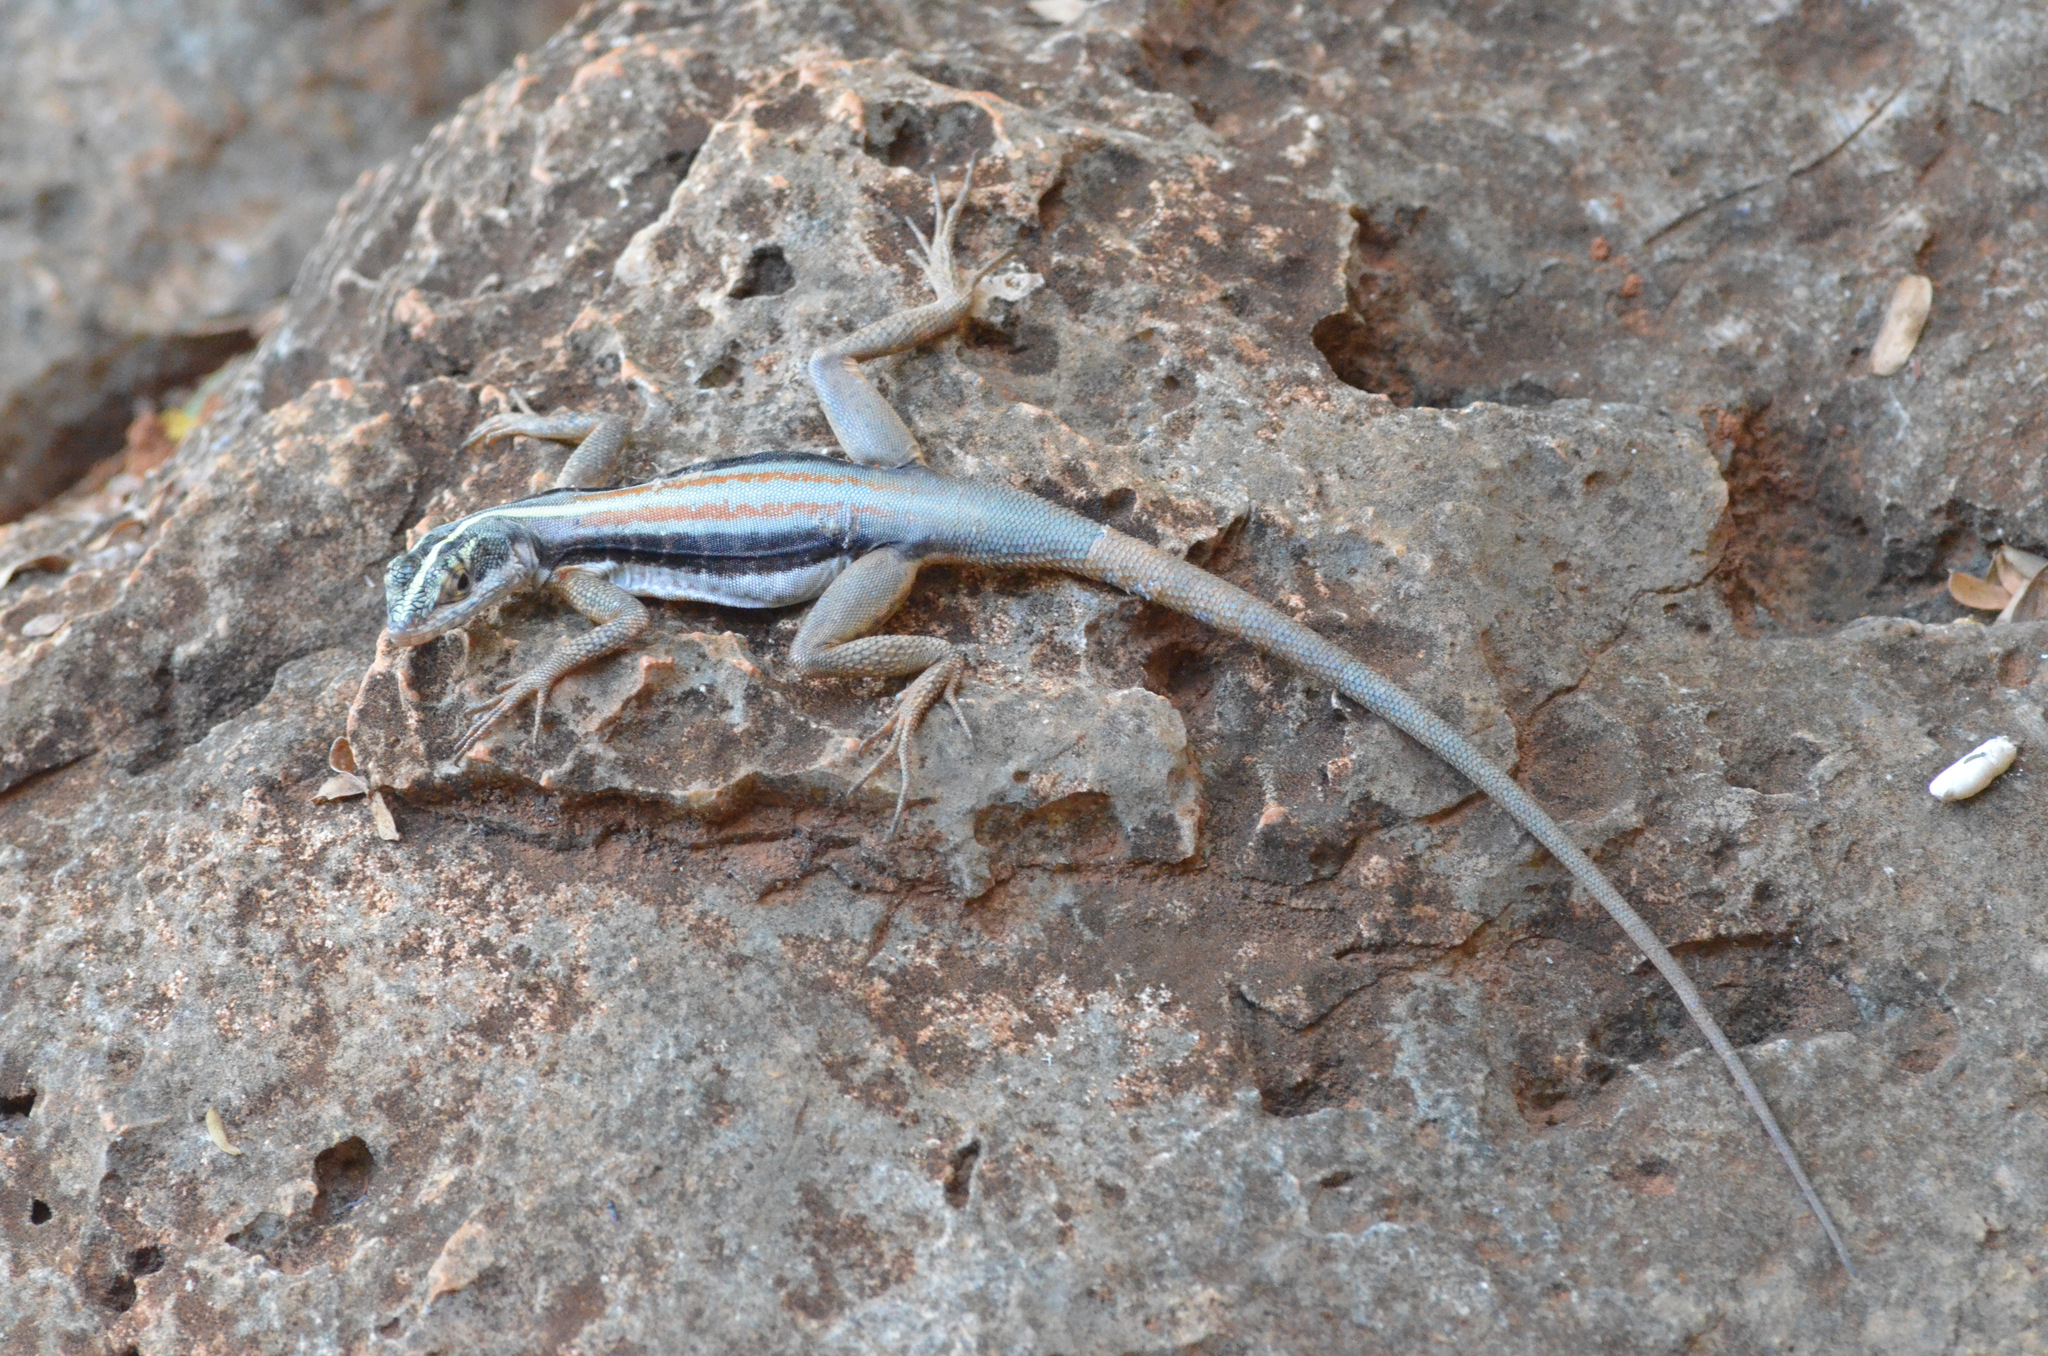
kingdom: Animalia
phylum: Chordata
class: Squamata
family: Tropiduridae
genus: Tropidurus
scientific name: Tropidurus semitaeniatus
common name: Striped lava lizard
